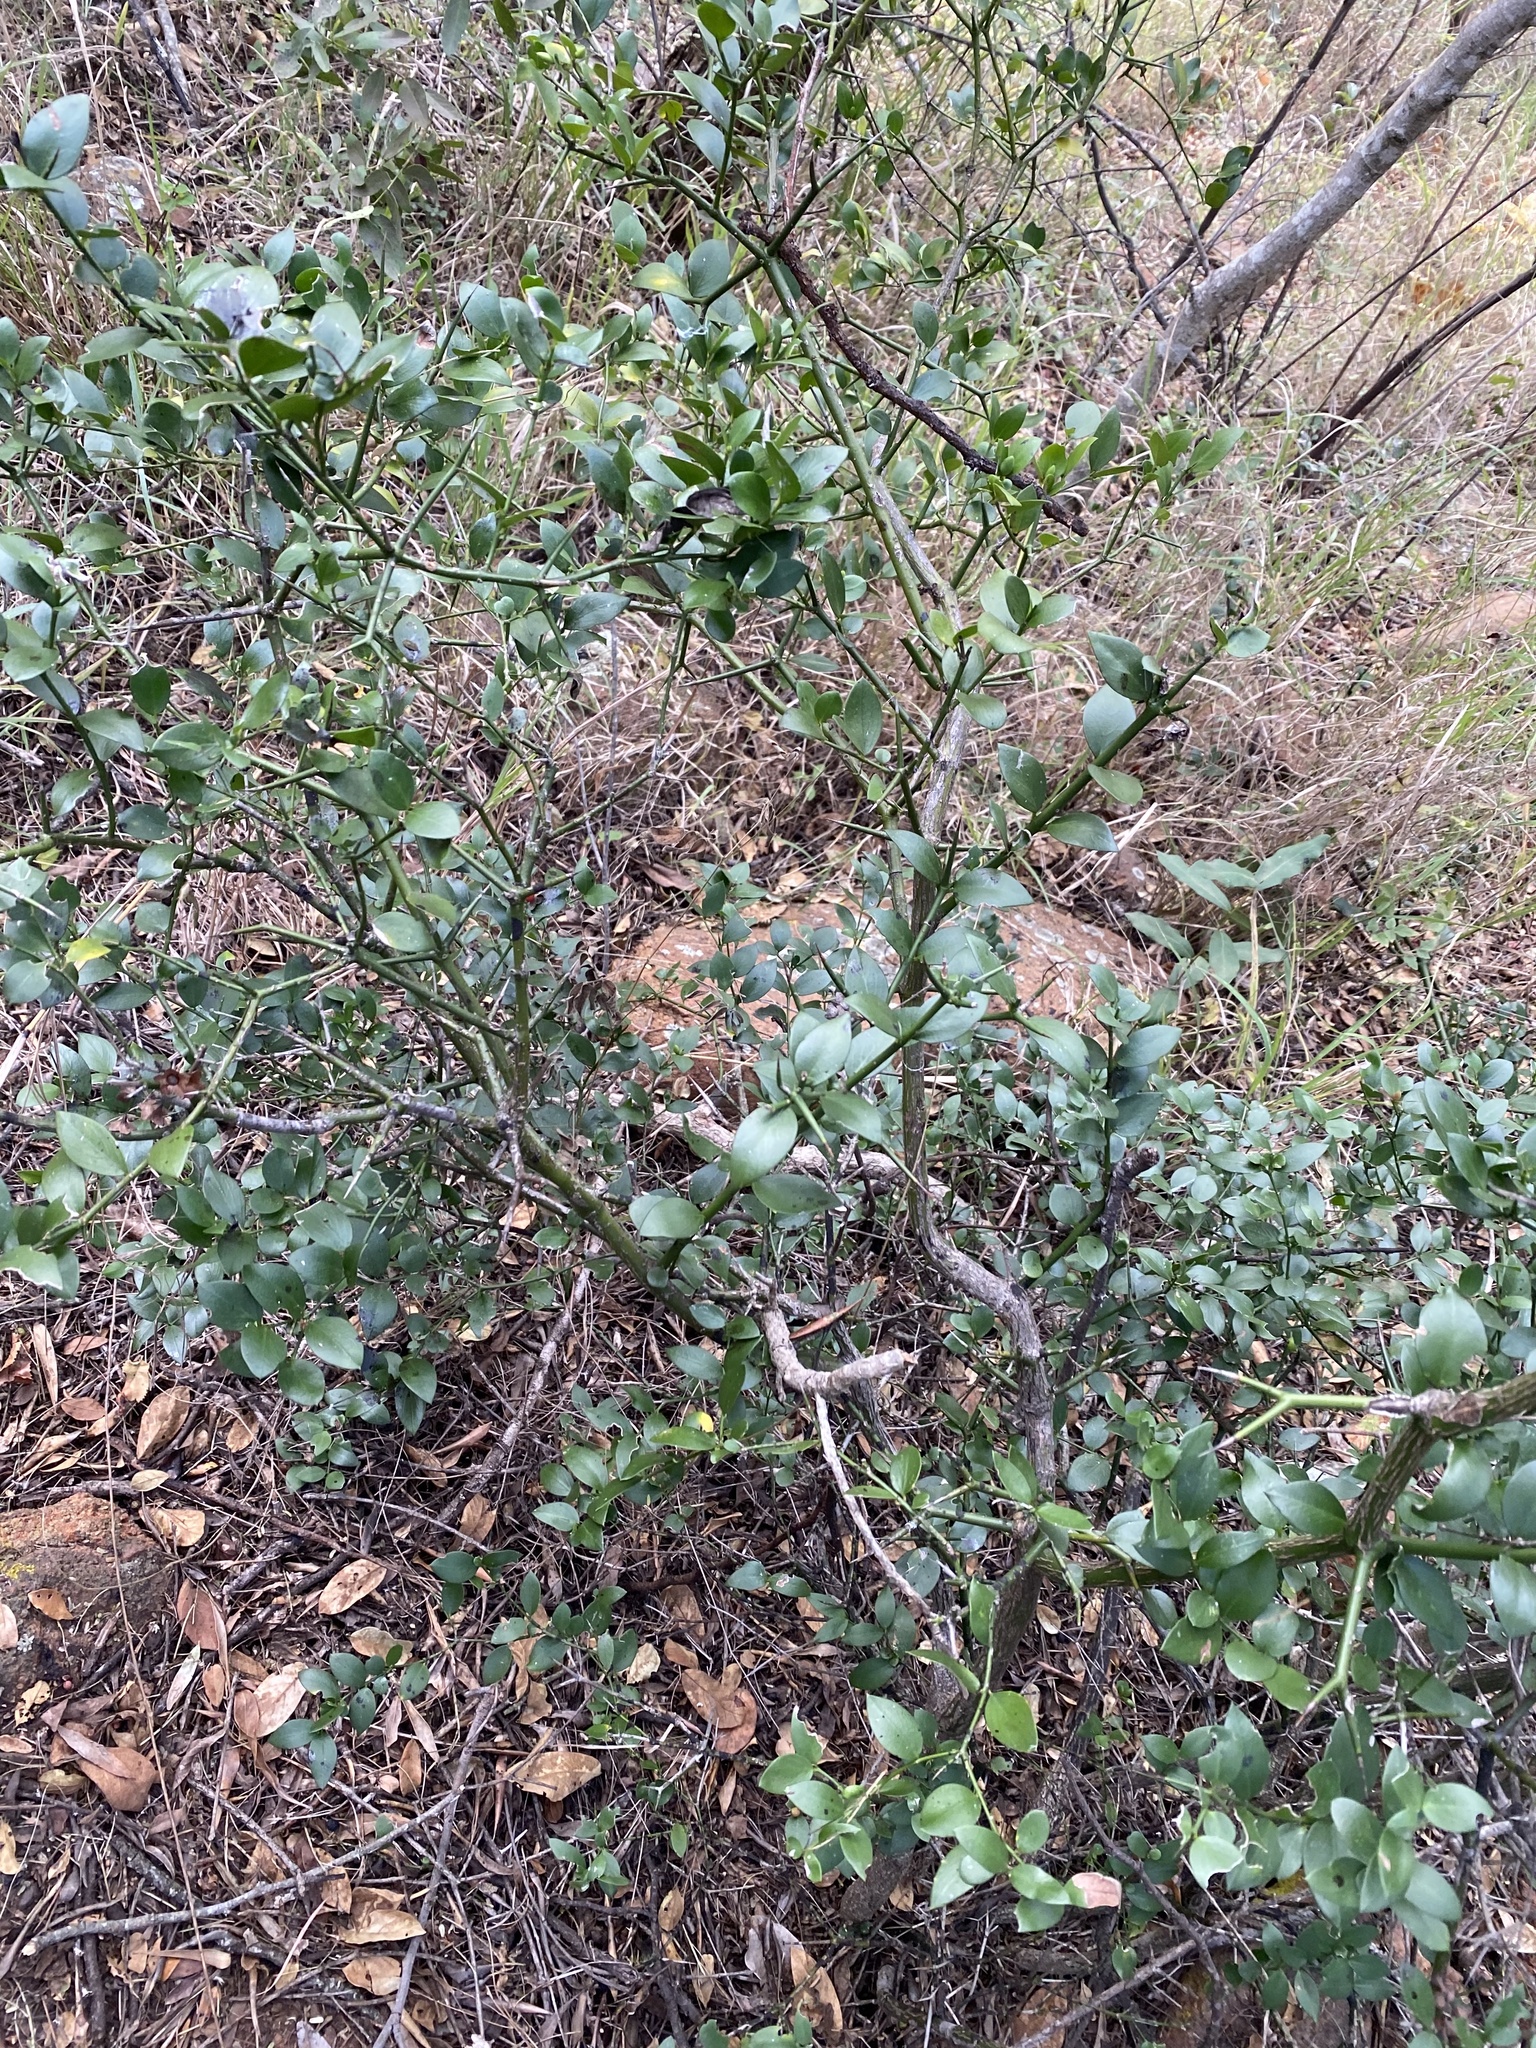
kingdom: Plantae
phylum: Tracheophyta
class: Magnoliopsida
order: Gentianales
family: Apocynaceae
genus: Carissa
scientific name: Carissa bispinosa
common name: Forest num-num
